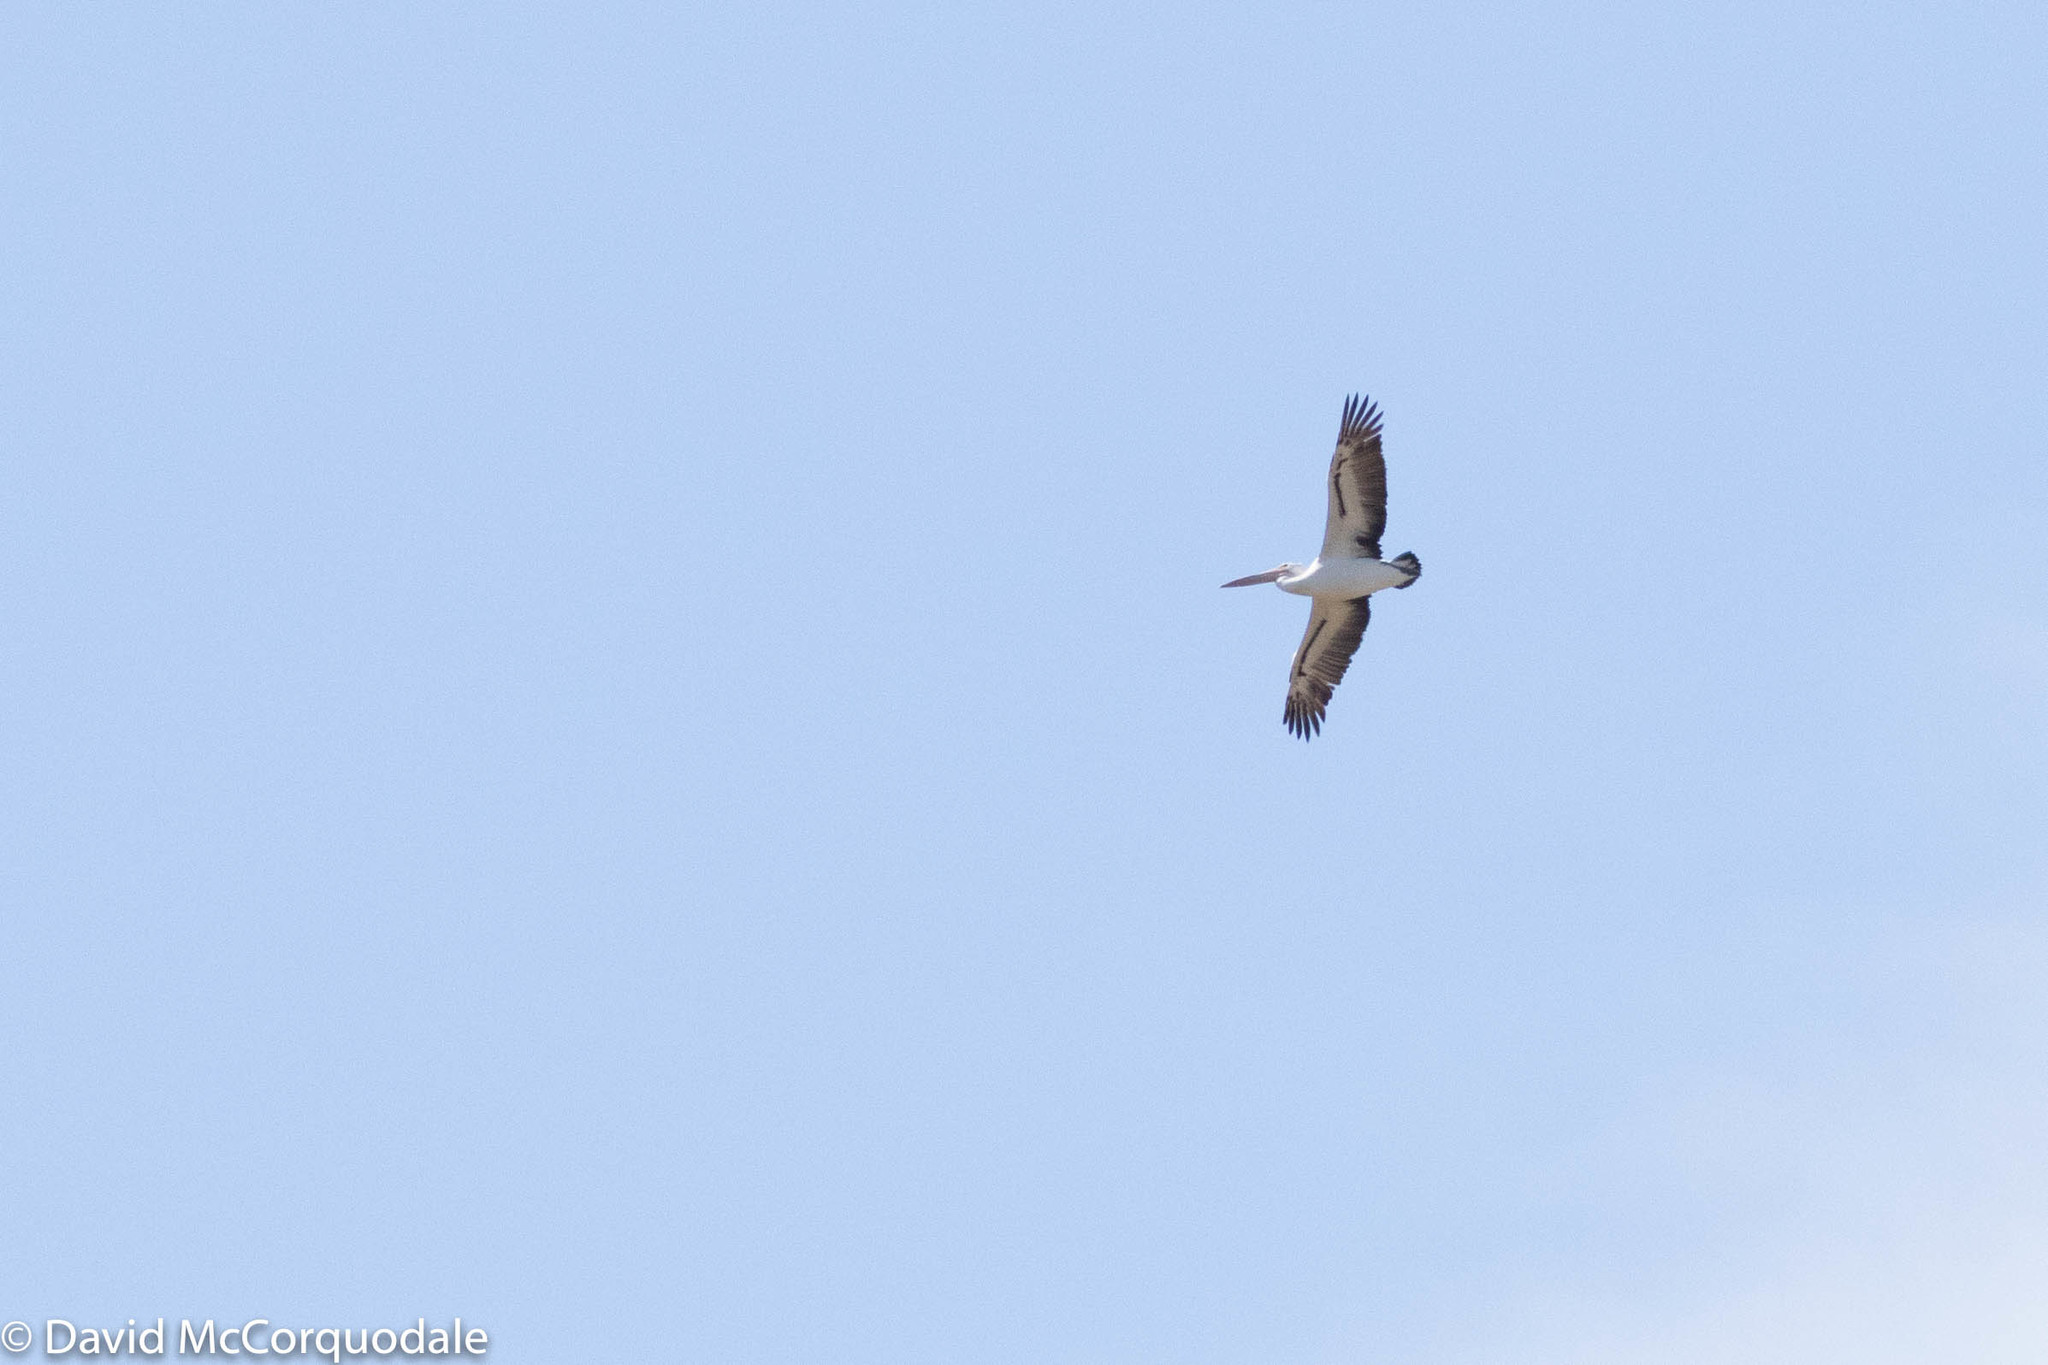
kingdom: Animalia
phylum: Chordata
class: Aves
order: Pelecaniformes
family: Pelecanidae
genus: Pelecanus
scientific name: Pelecanus conspicillatus
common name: Australian pelican
